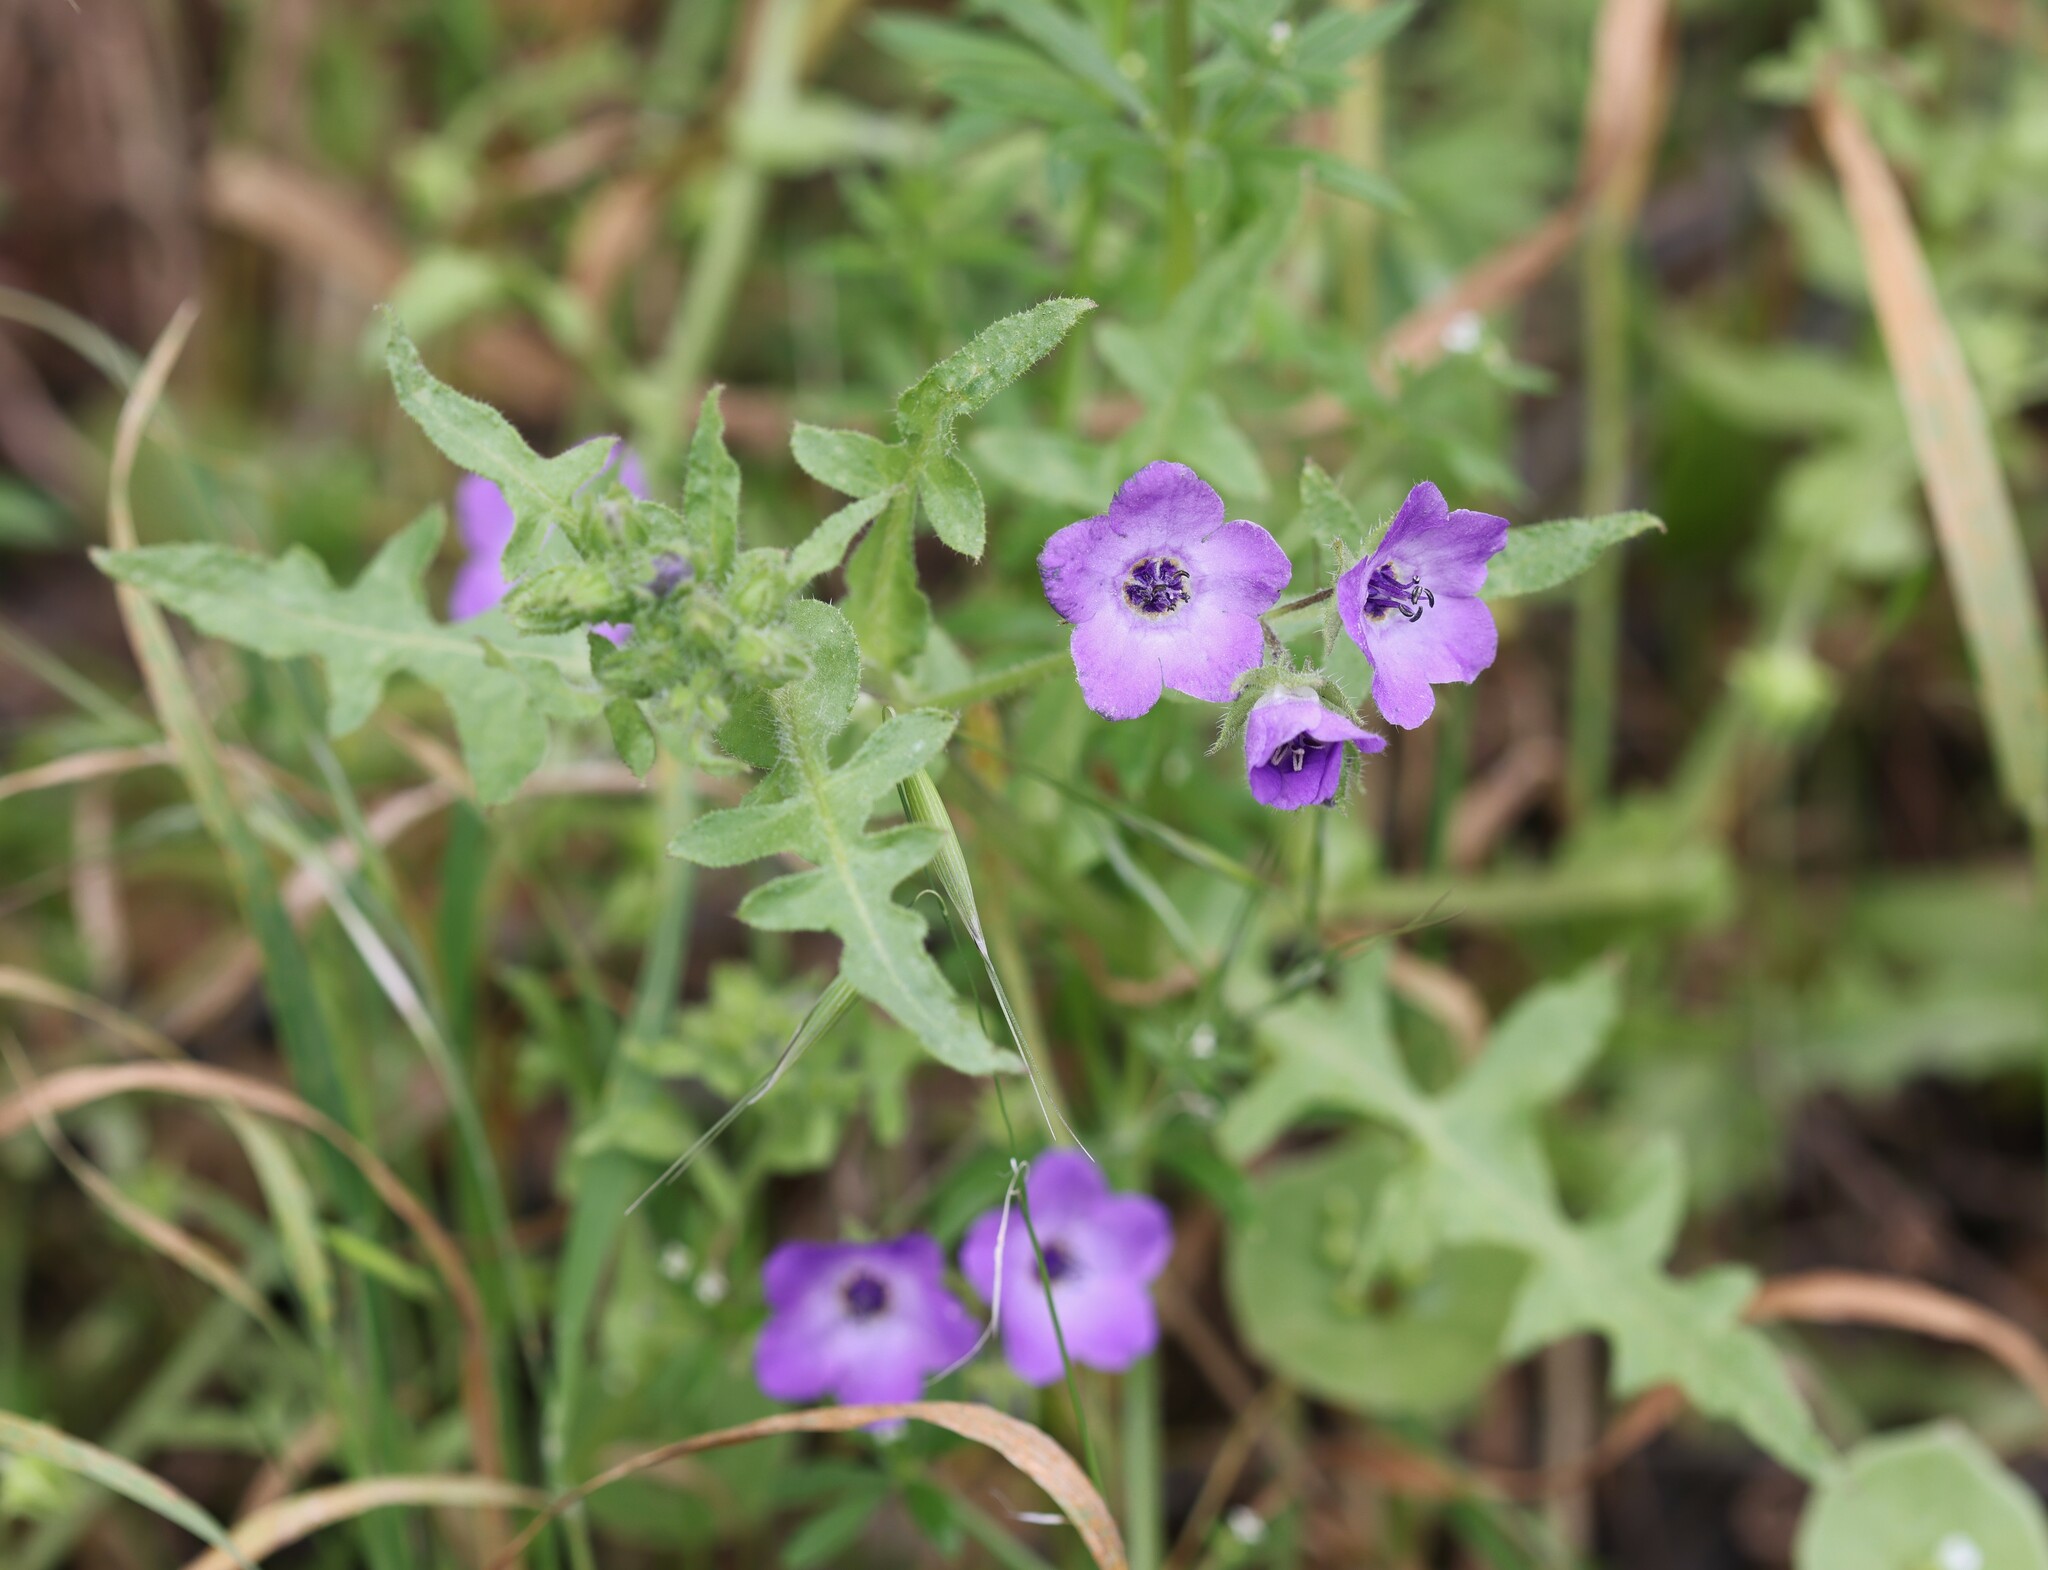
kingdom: Plantae
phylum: Tracheophyta
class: Magnoliopsida
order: Boraginales
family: Hydrophyllaceae
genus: Pholistoma
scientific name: Pholistoma auritum
